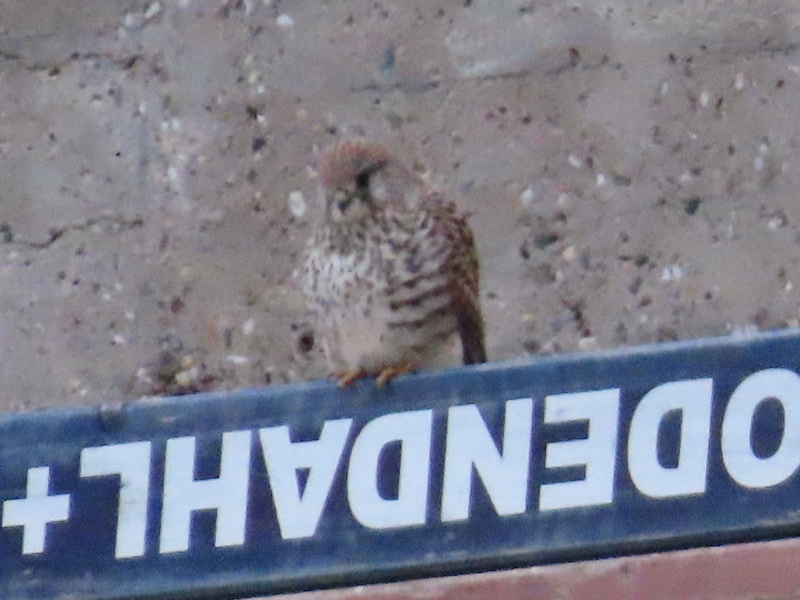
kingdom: Animalia
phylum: Chordata
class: Aves
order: Falconiformes
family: Falconidae
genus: Falco
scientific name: Falco tinnunculus
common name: Common kestrel
